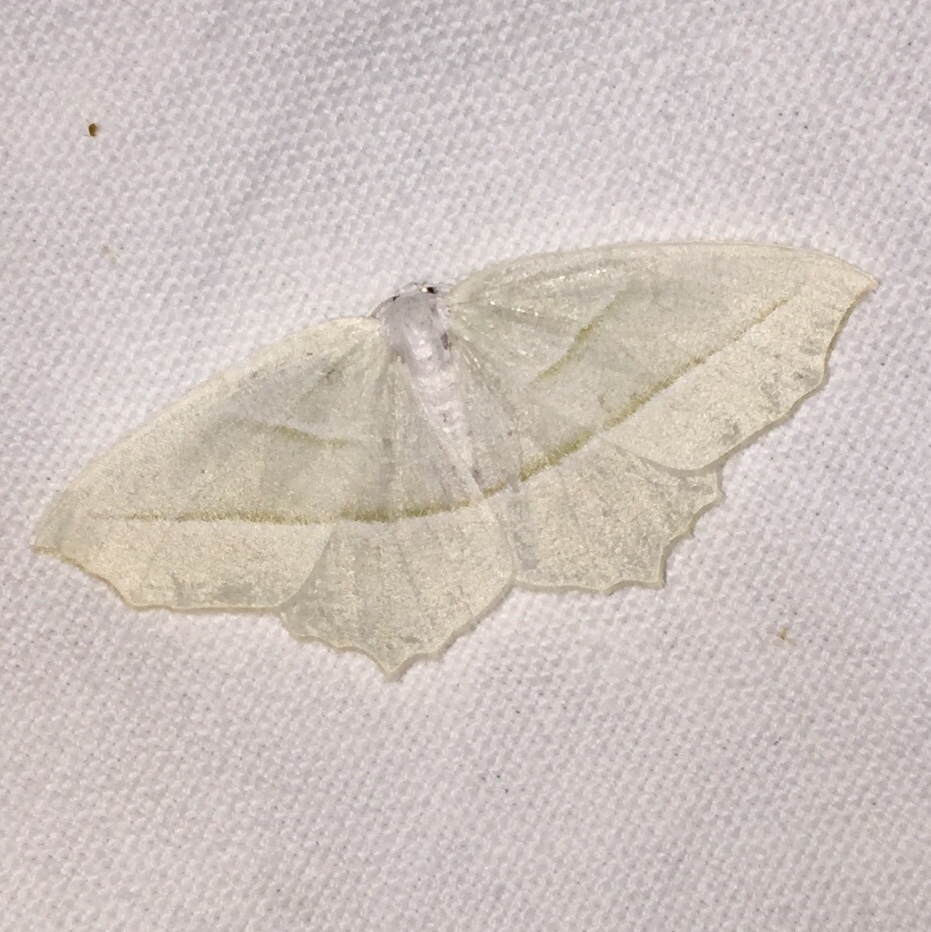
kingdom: Animalia
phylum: Arthropoda
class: Insecta
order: Lepidoptera
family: Geometridae
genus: Campaea
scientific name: Campaea perlata
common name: Fringed looper
